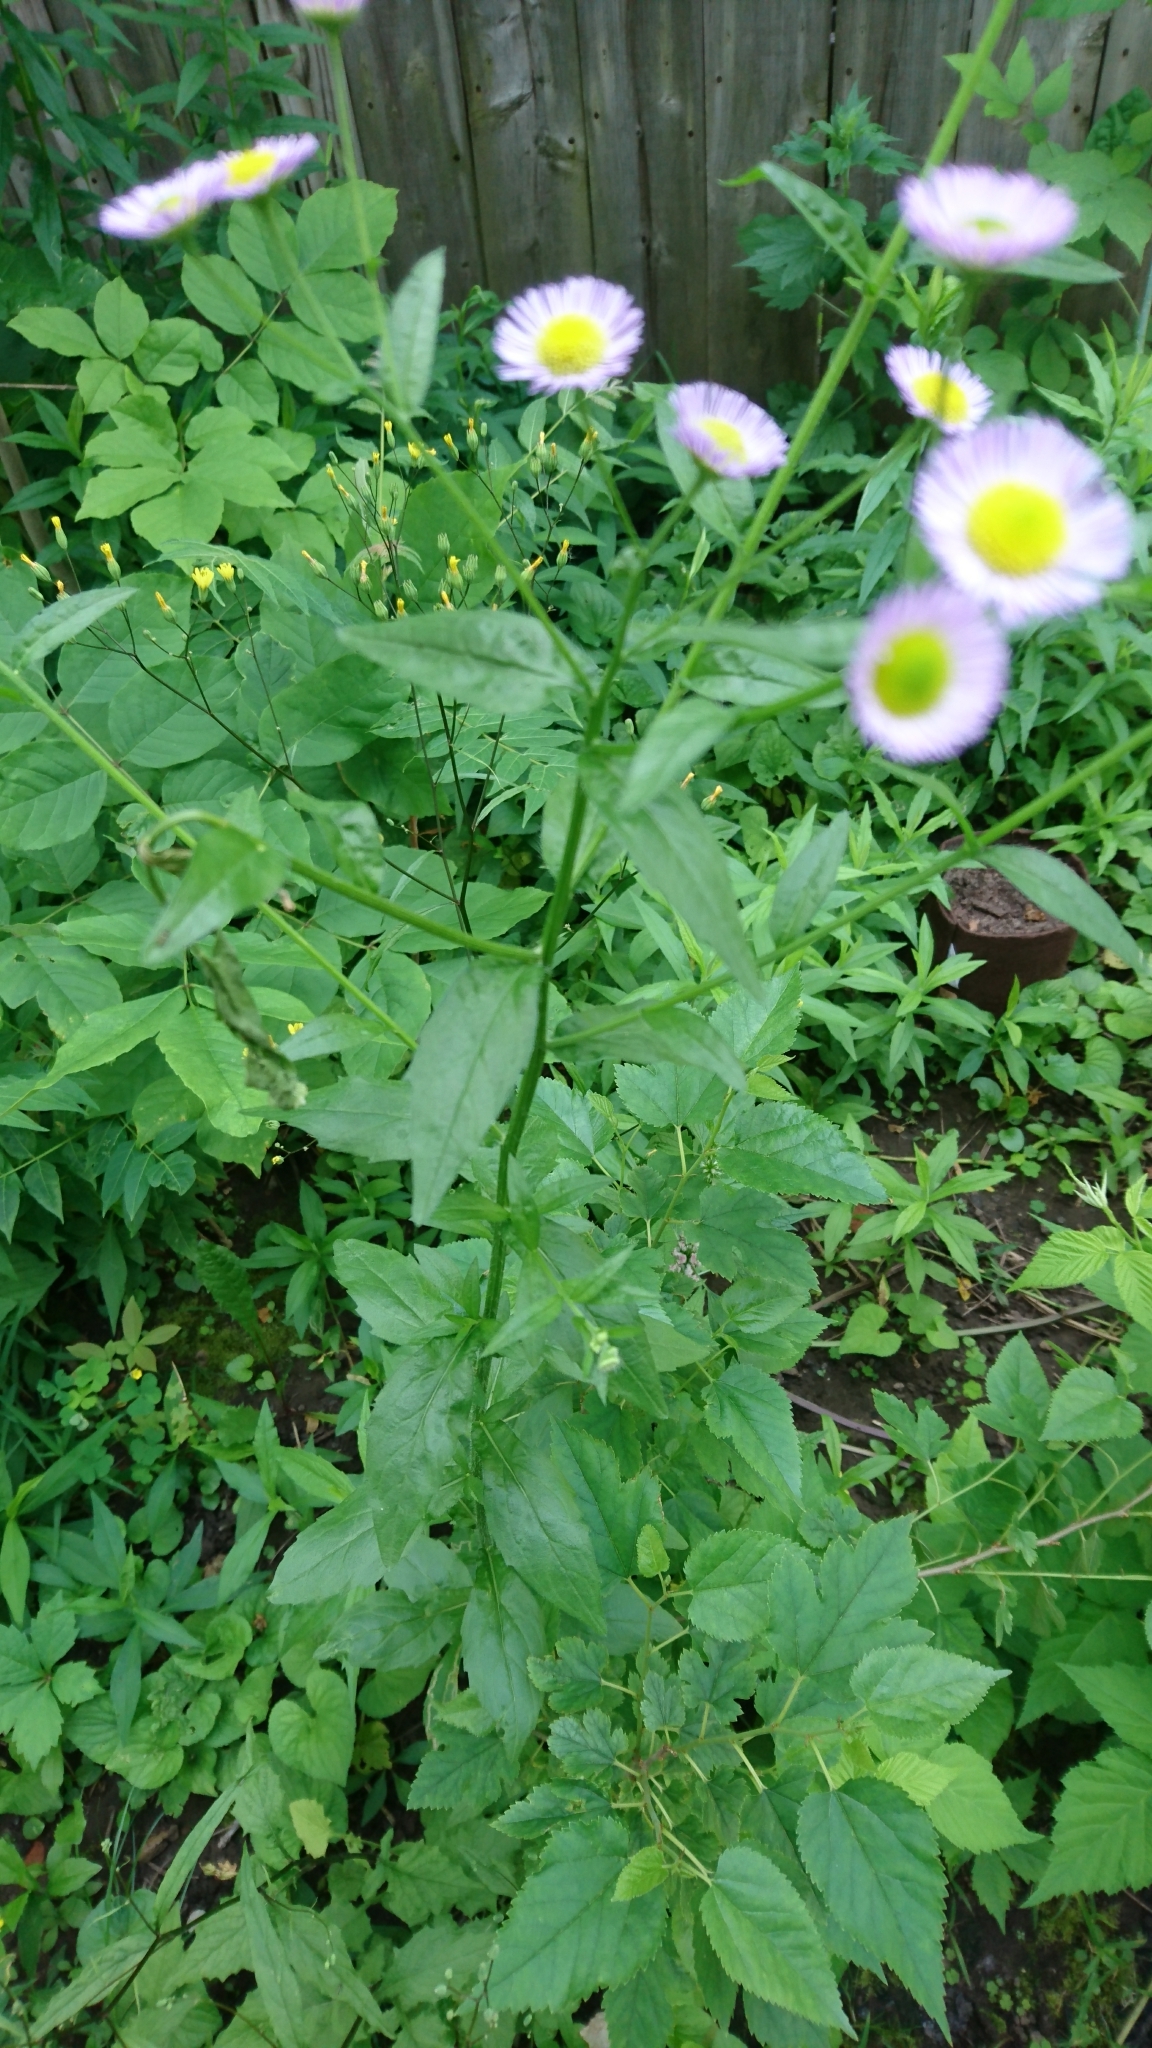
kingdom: Plantae
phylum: Tracheophyta
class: Magnoliopsida
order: Asterales
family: Asteraceae
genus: Erigeron
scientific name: Erigeron annuus
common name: Tall fleabane
